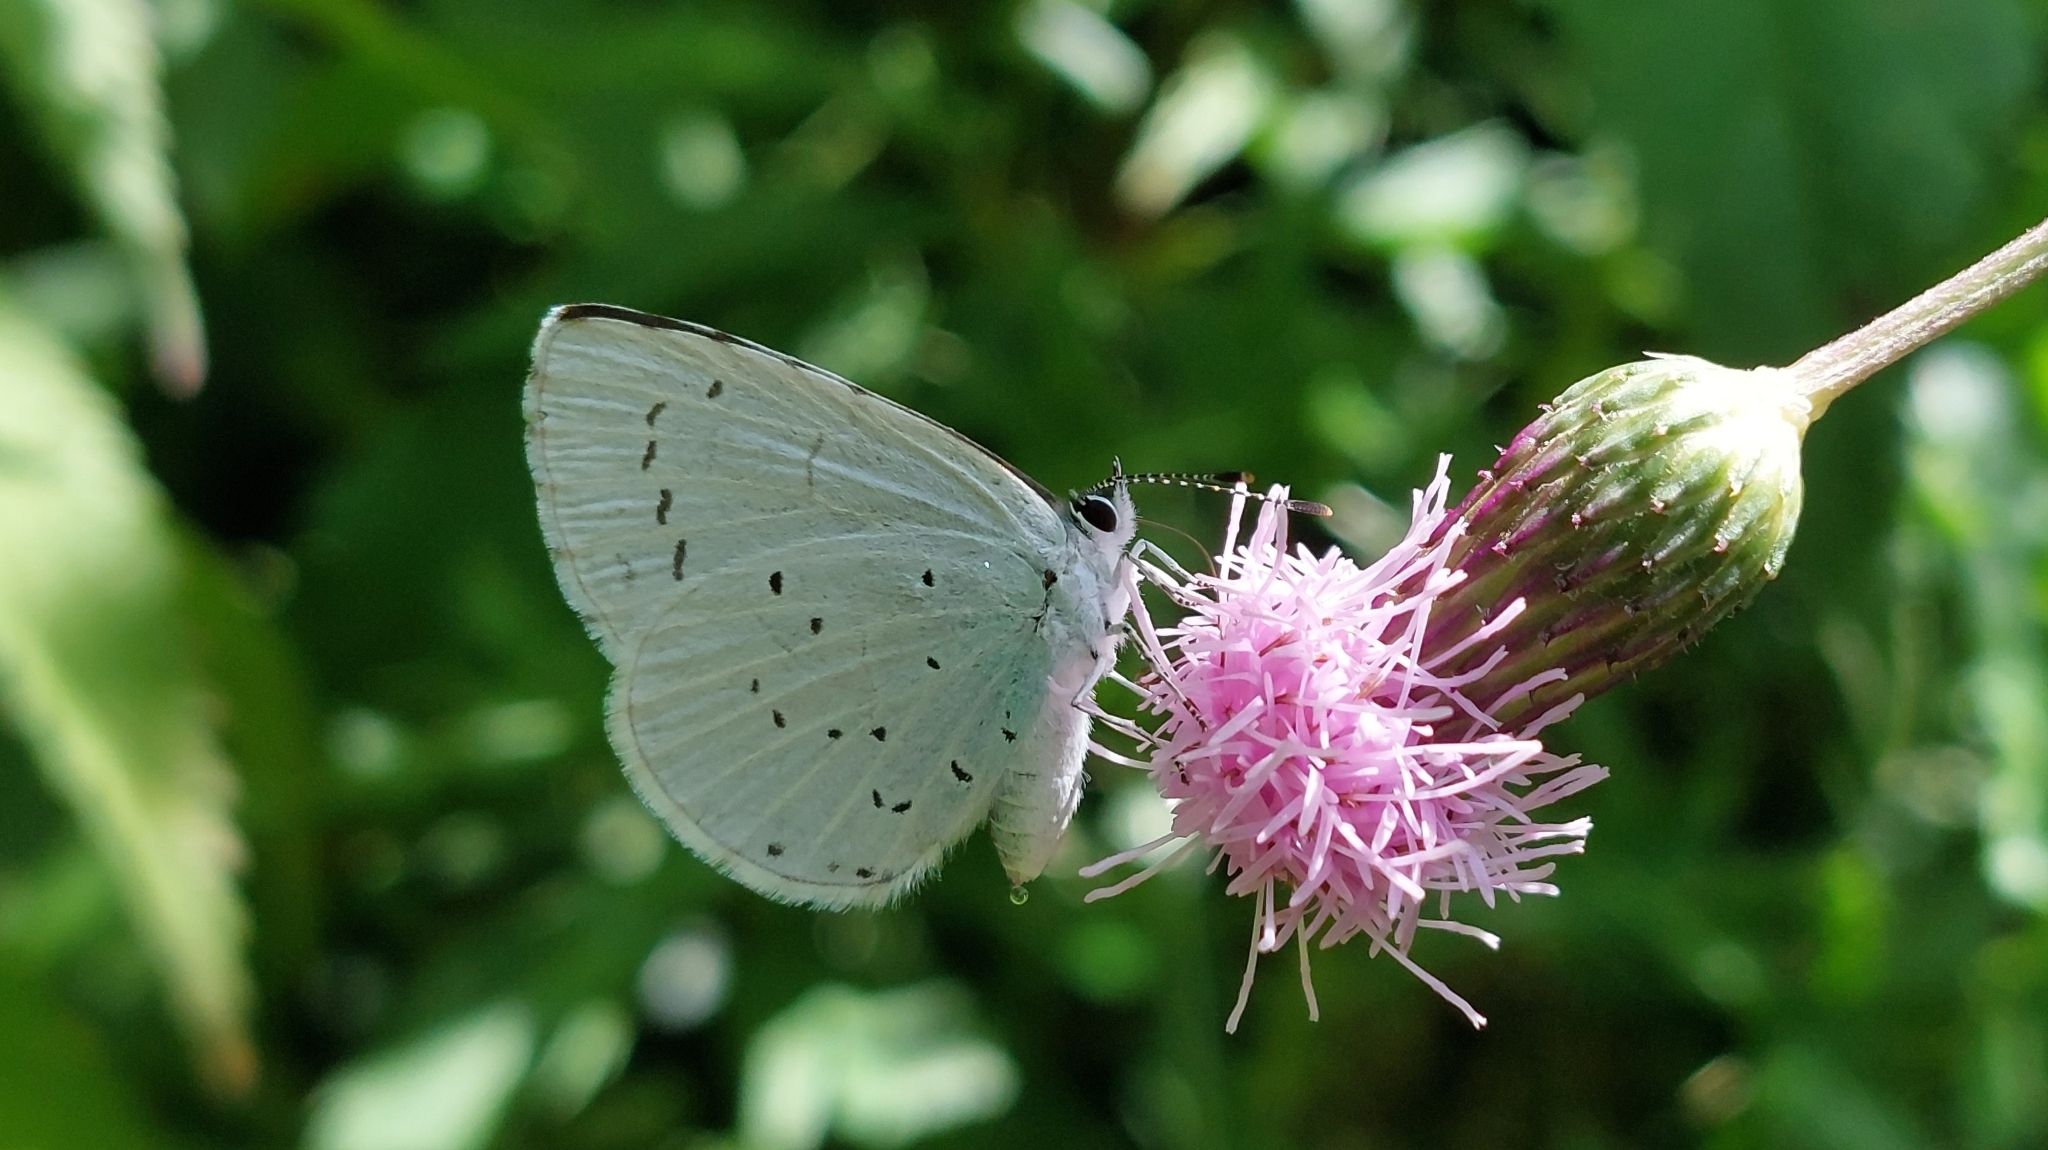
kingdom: Animalia
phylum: Arthropoda
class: Insecta
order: Lepidoptera
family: Lycaenidae
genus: Celastrina
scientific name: Celastrina argiolus
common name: Holly blue
